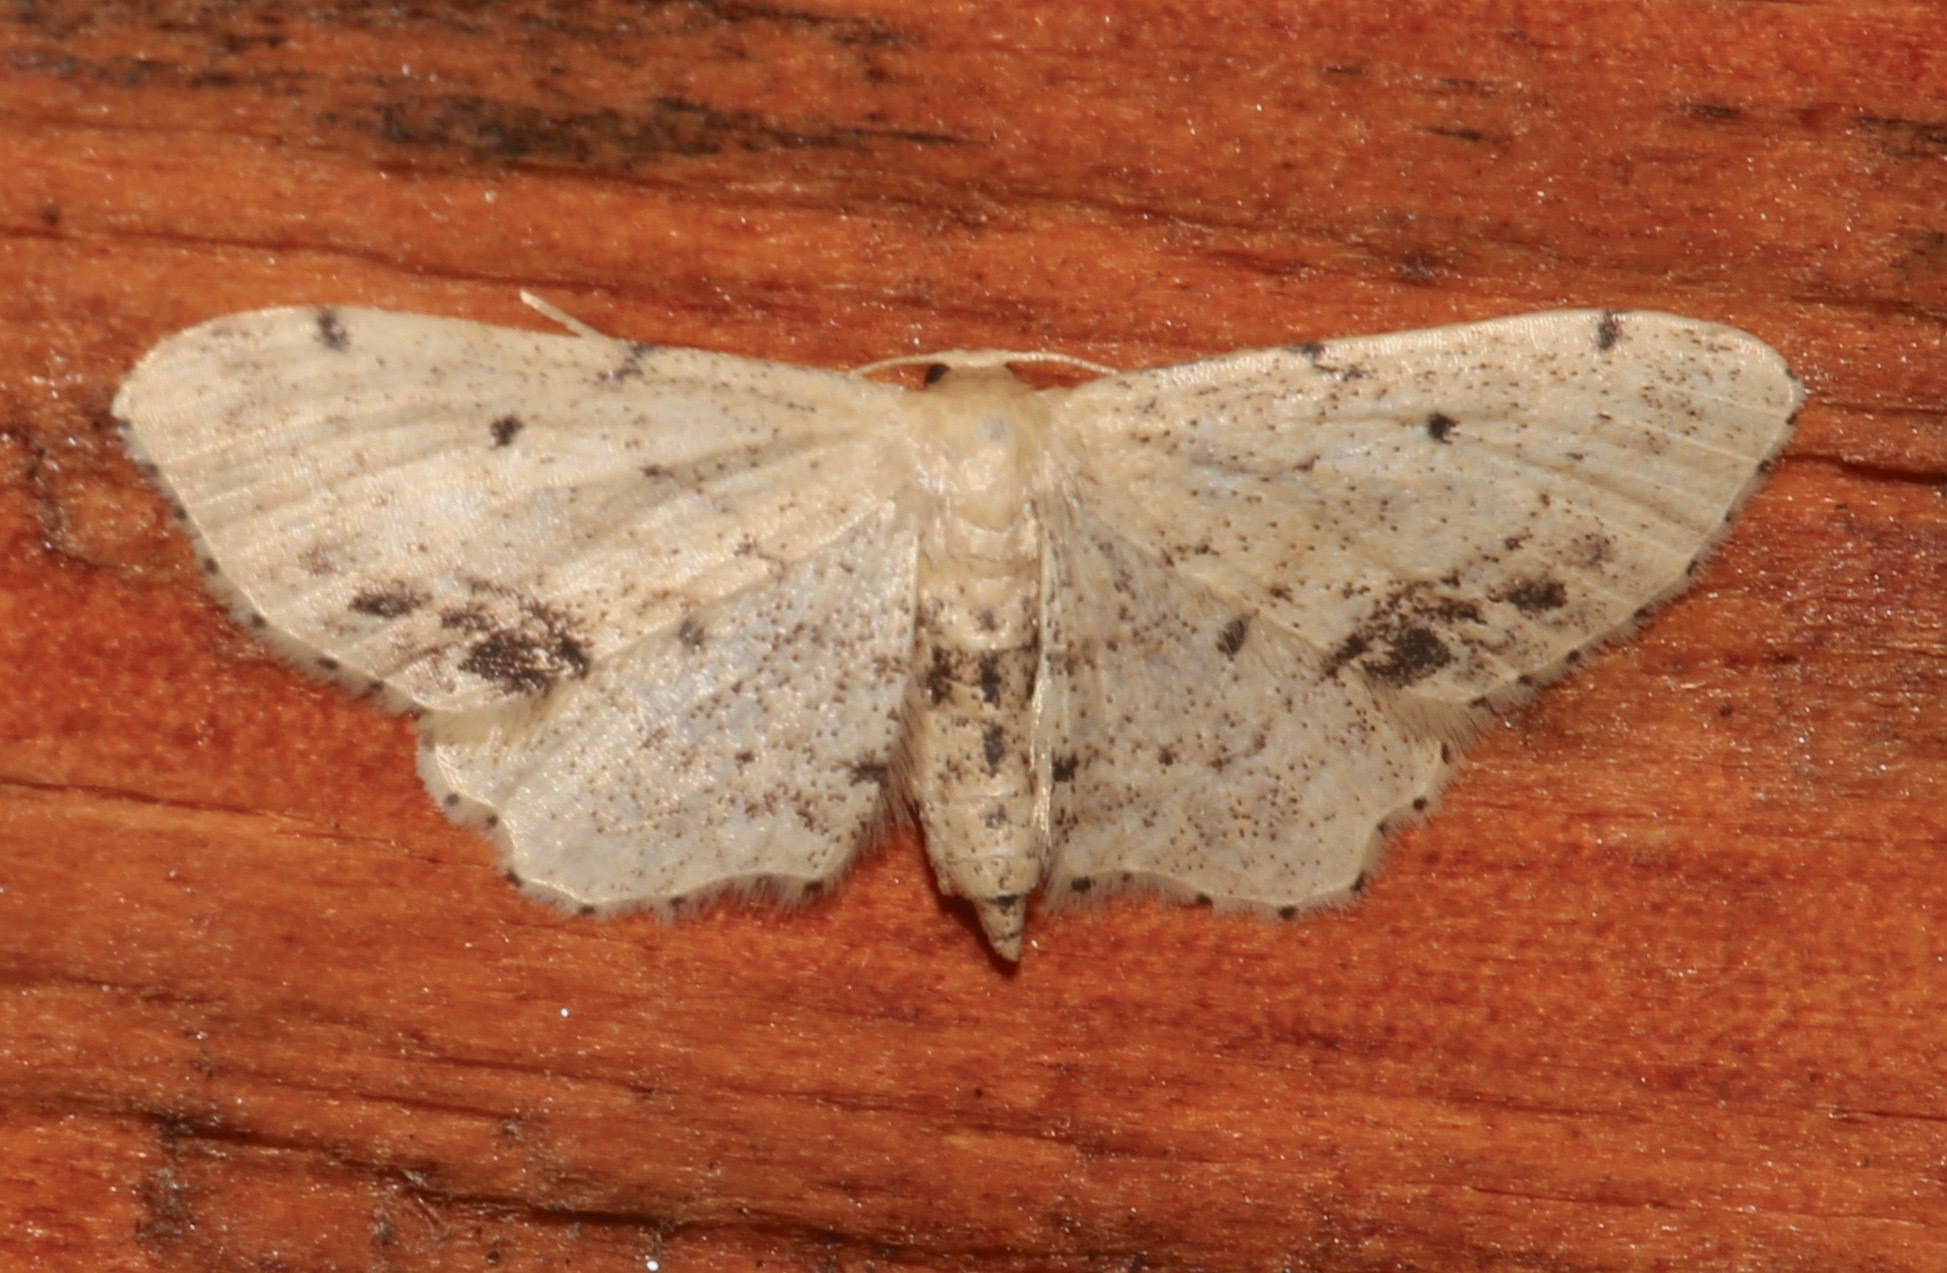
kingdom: Animalia
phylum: Arthropoda
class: Insecta
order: Lepidoptera
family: Geometridae
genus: Idaea
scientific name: Idaea dimidiata
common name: Single-dotted wave
